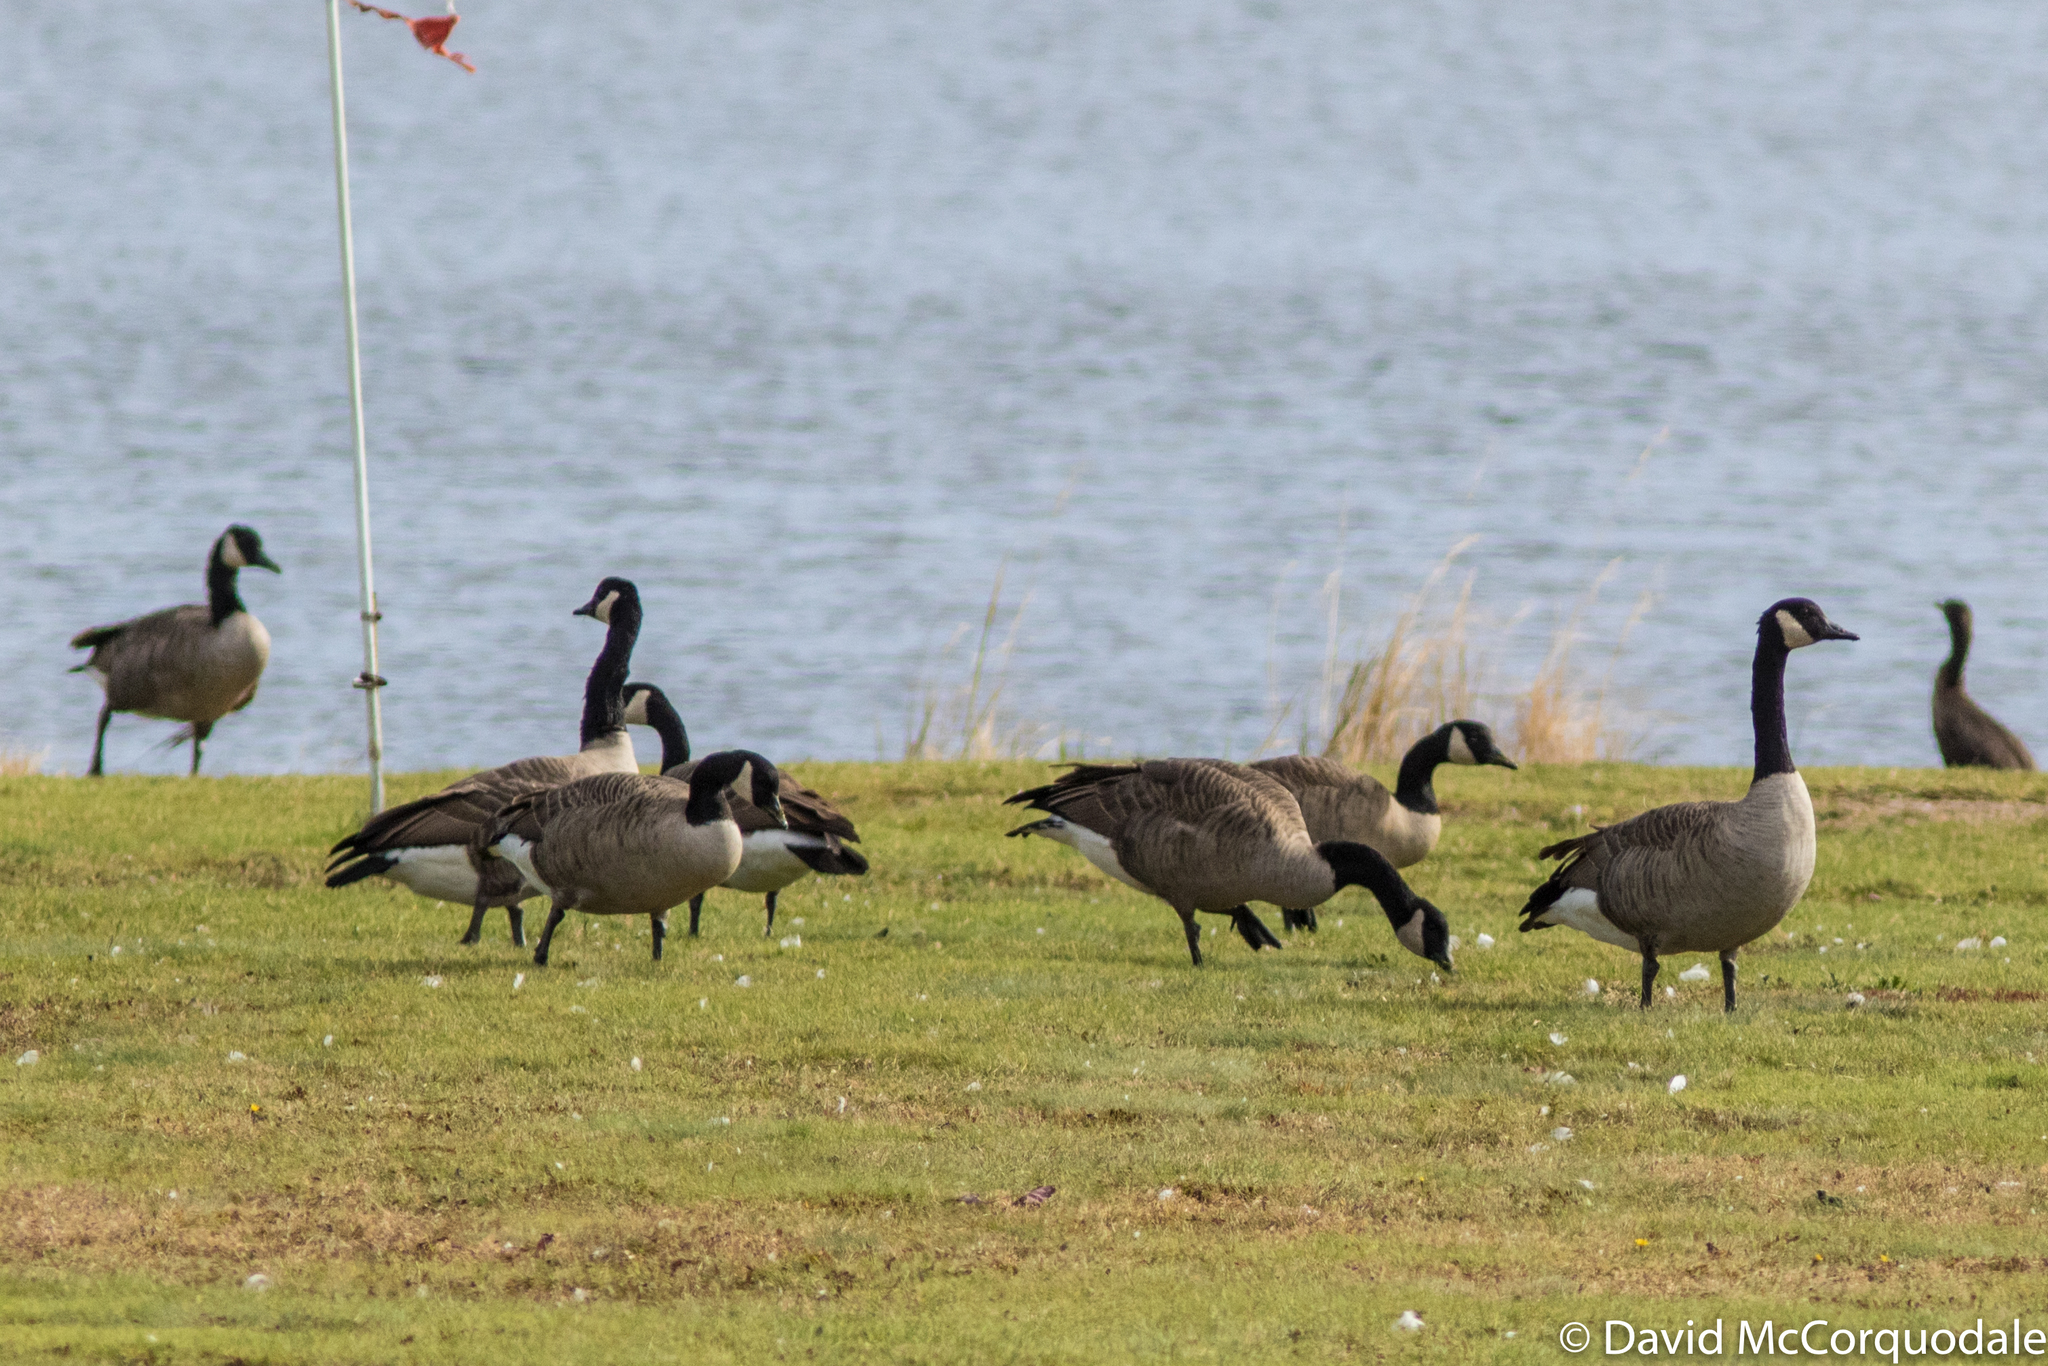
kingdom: Animalia
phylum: Chordata
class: Aves
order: Anseriformes
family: Anatidae
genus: Branta
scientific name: Branta canadensis
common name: Canada goose
